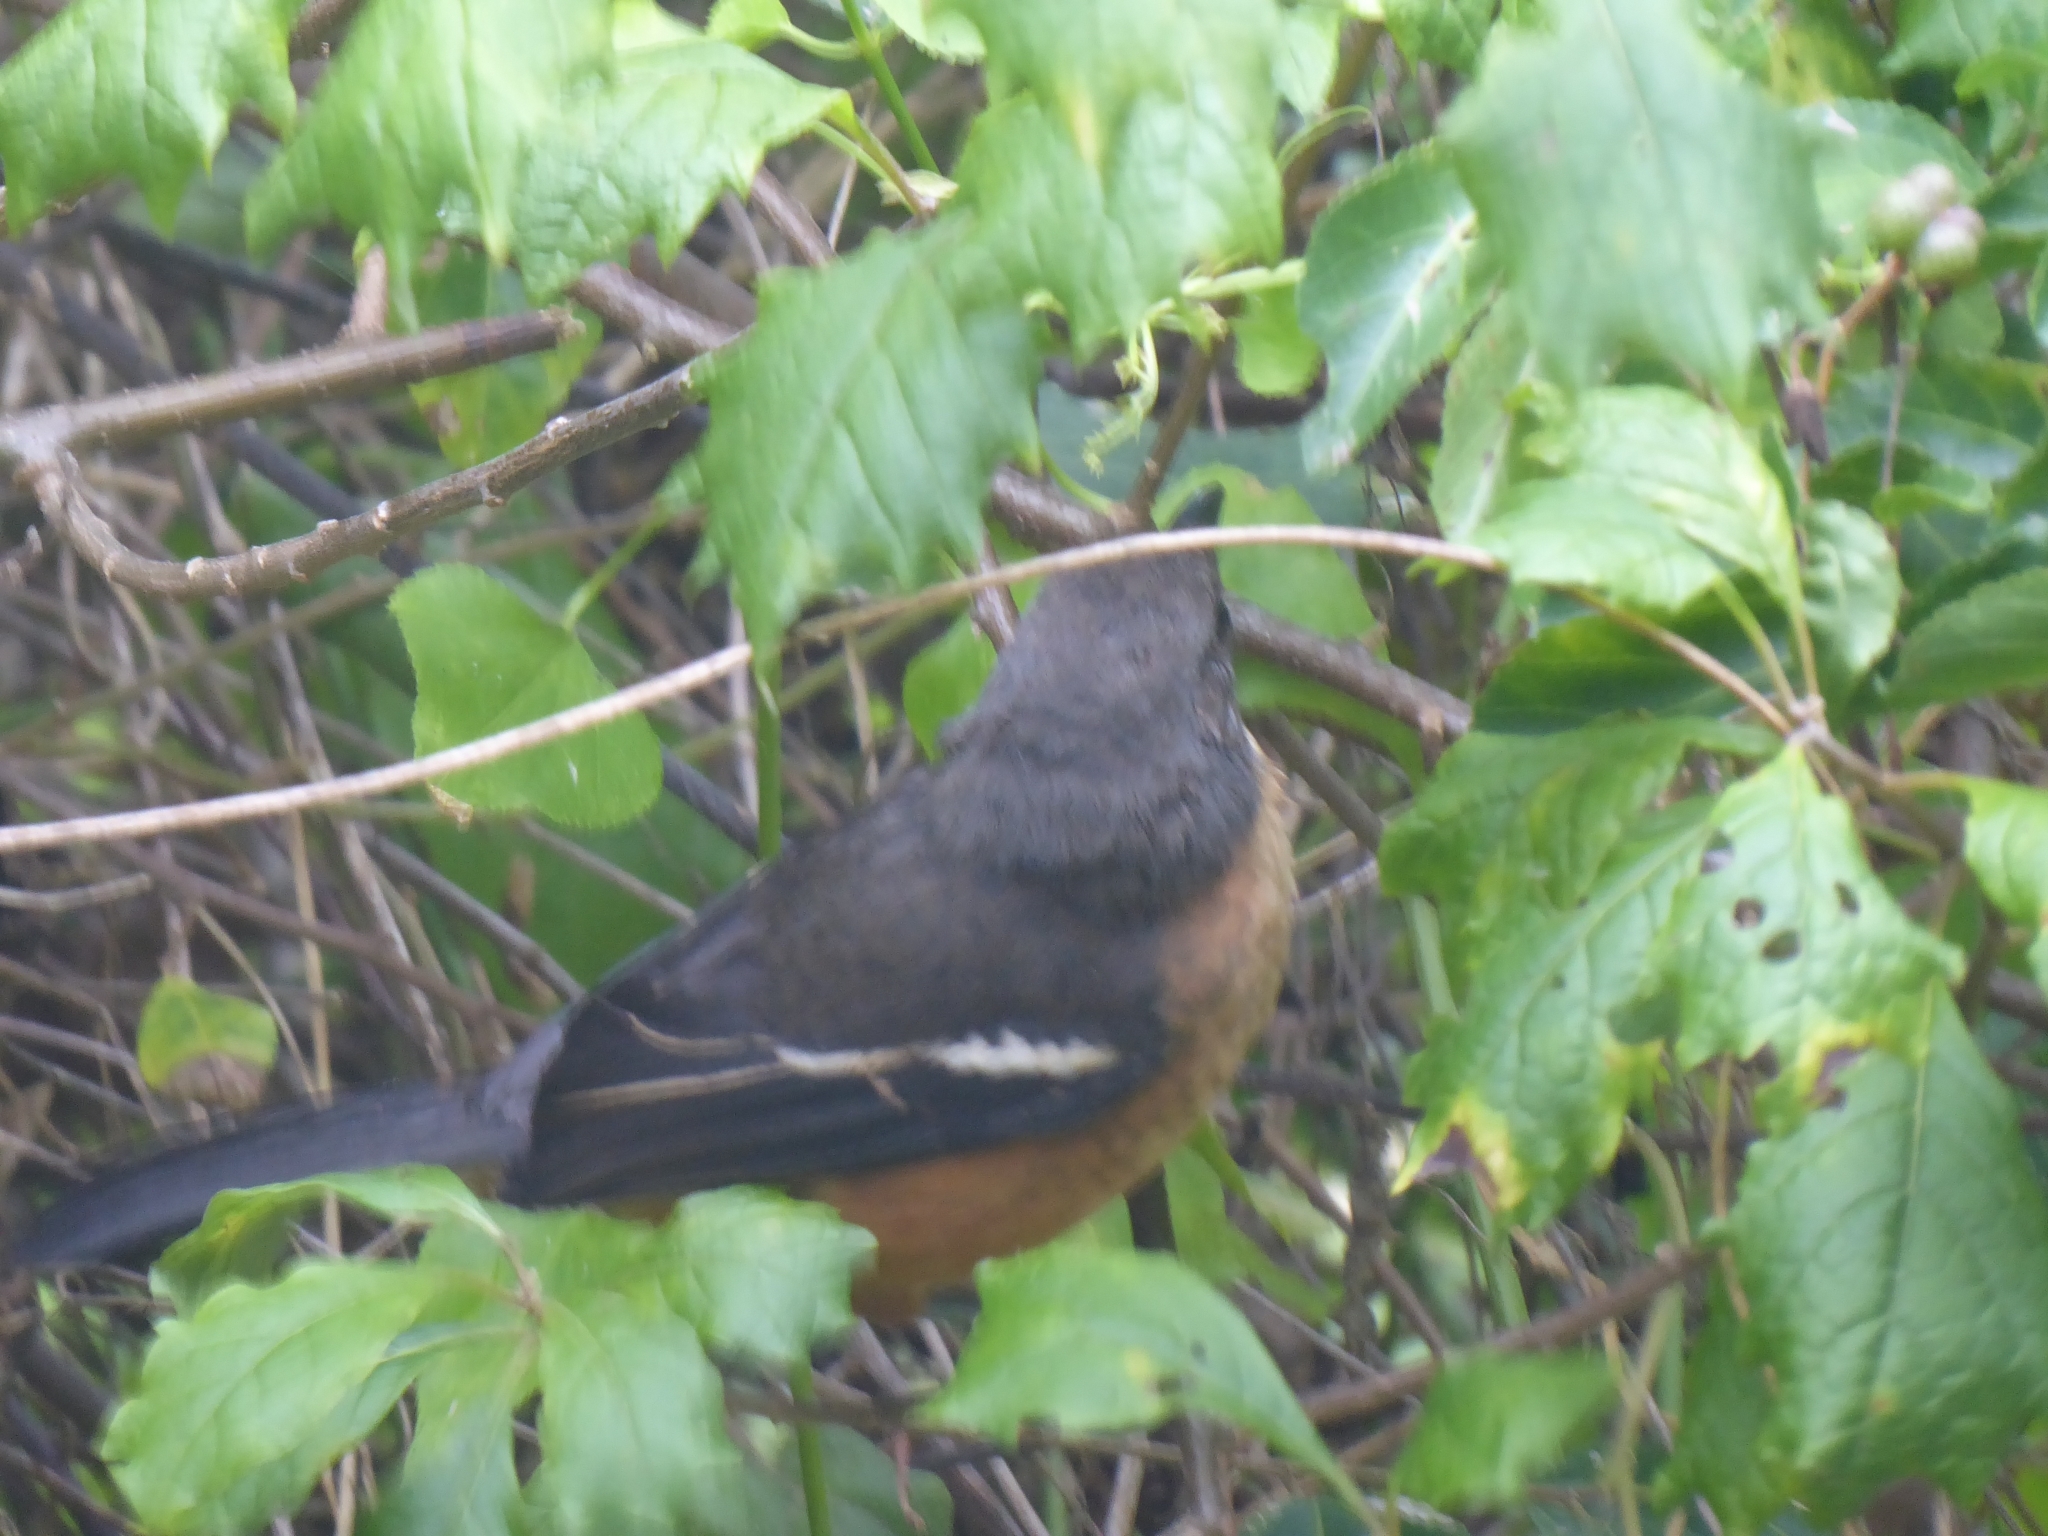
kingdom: Animalia
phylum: Chordata
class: Aves
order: Passeriformes
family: Malaconotidae
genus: Laniarius
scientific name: Laniarius ferrugineus
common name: Southern boubou
